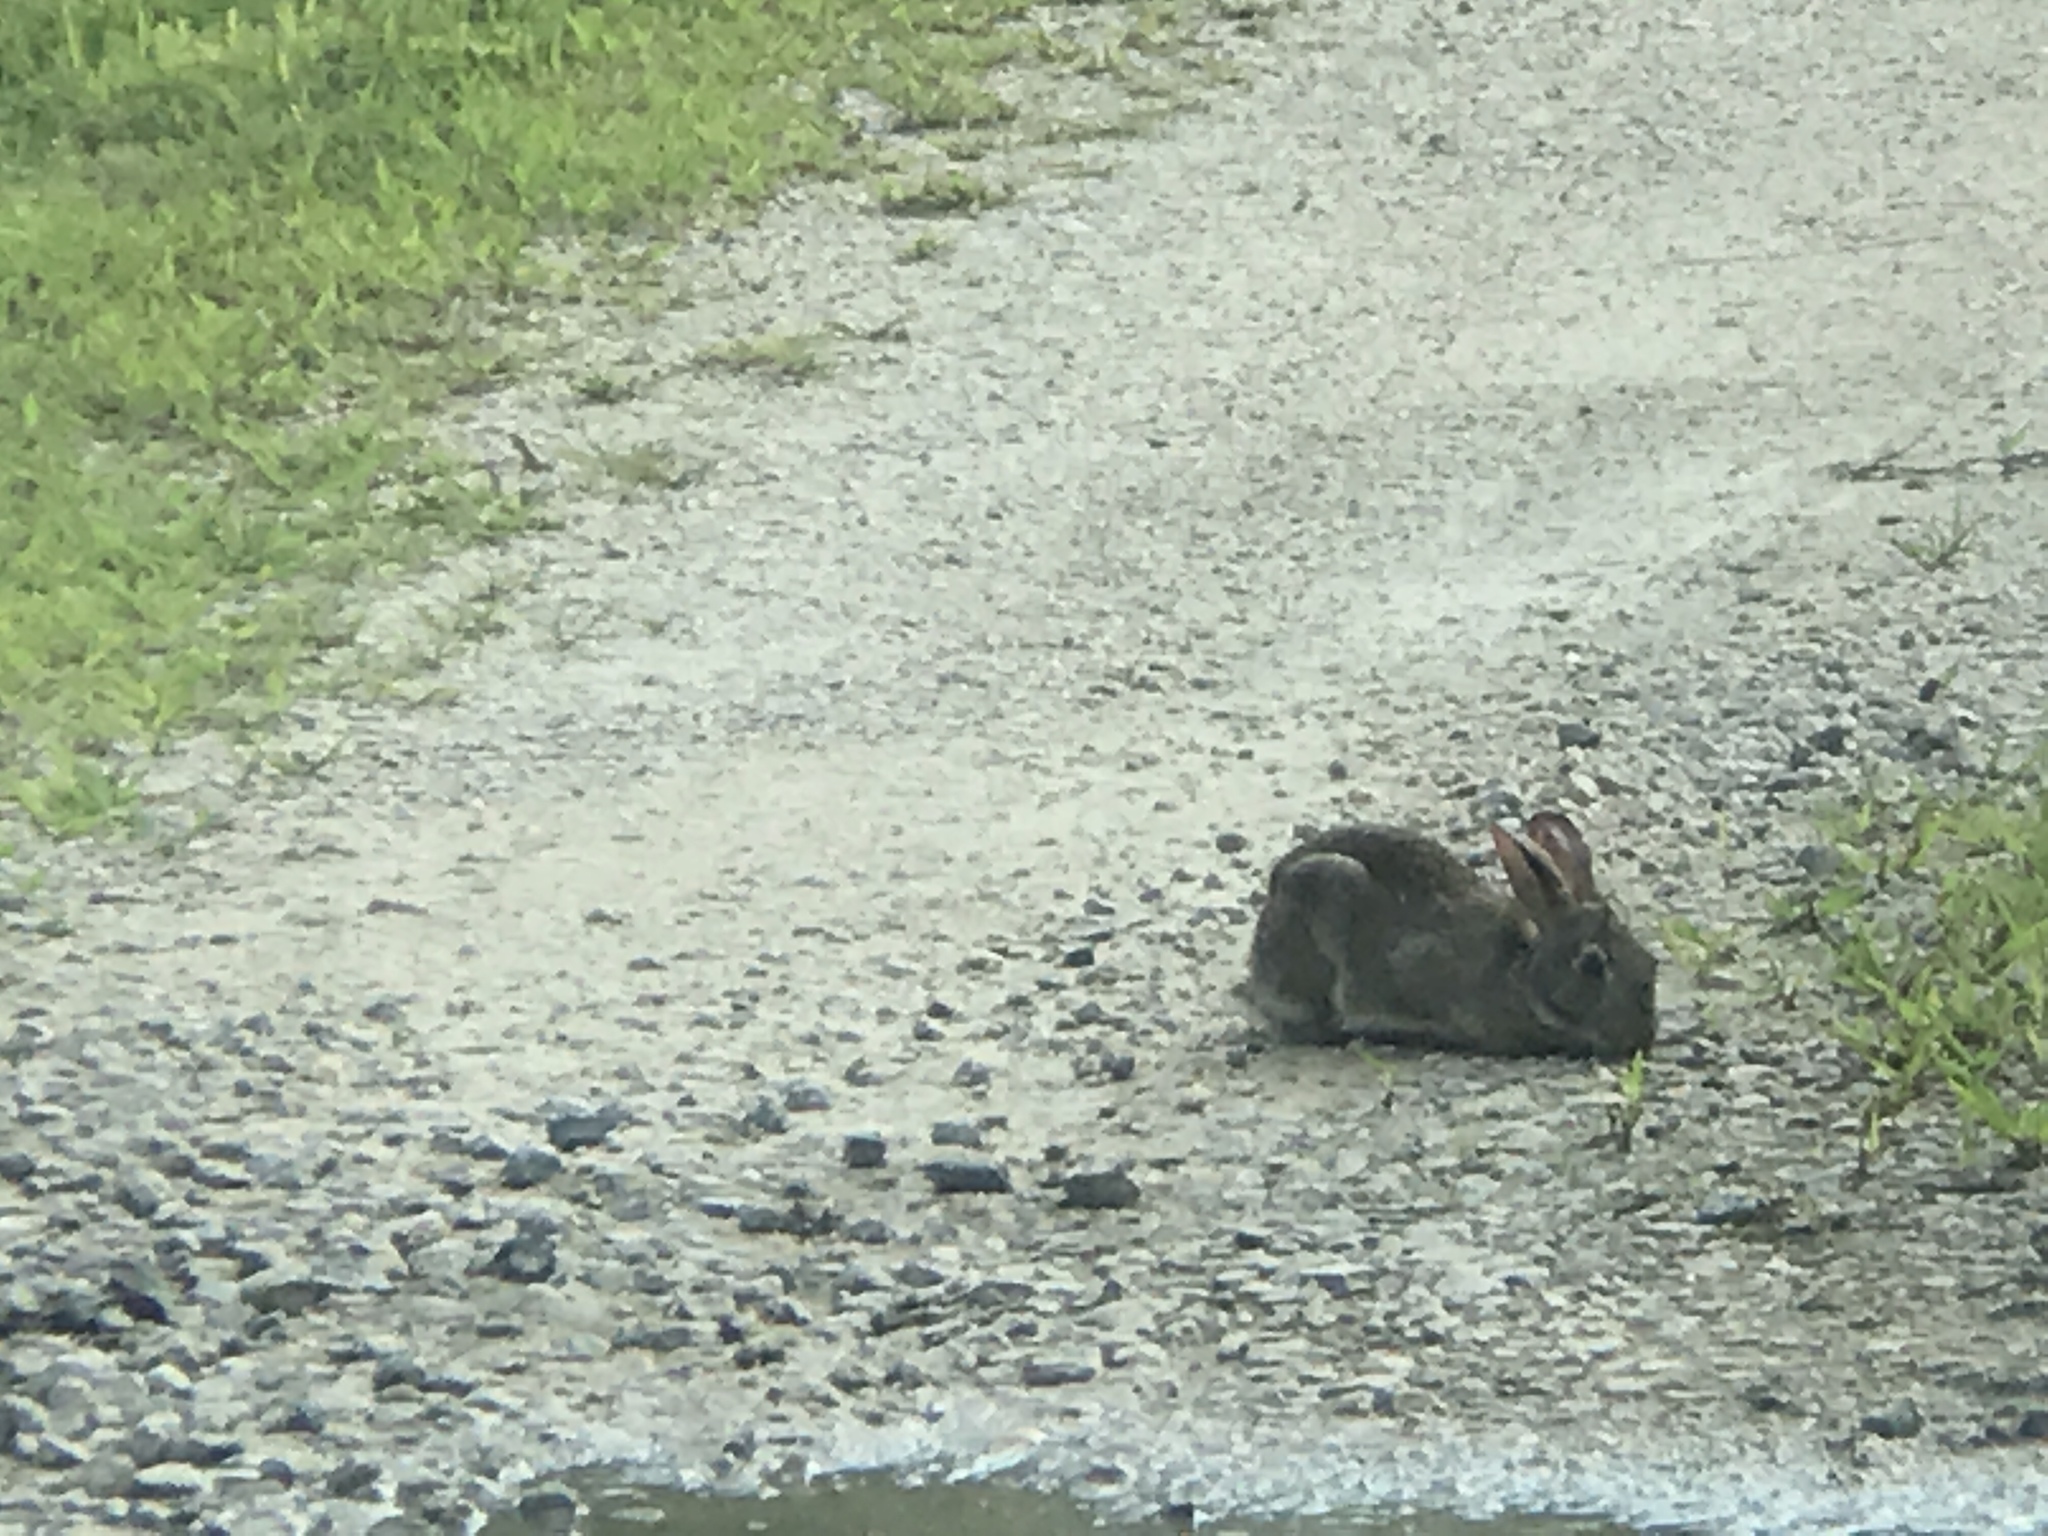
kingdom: Animalia
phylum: Chordata
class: Mammalia
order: Lagomorpha
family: Leporidae
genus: Sylvilagus
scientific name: Sylvilagus floridanus
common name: Eastern cottontail
